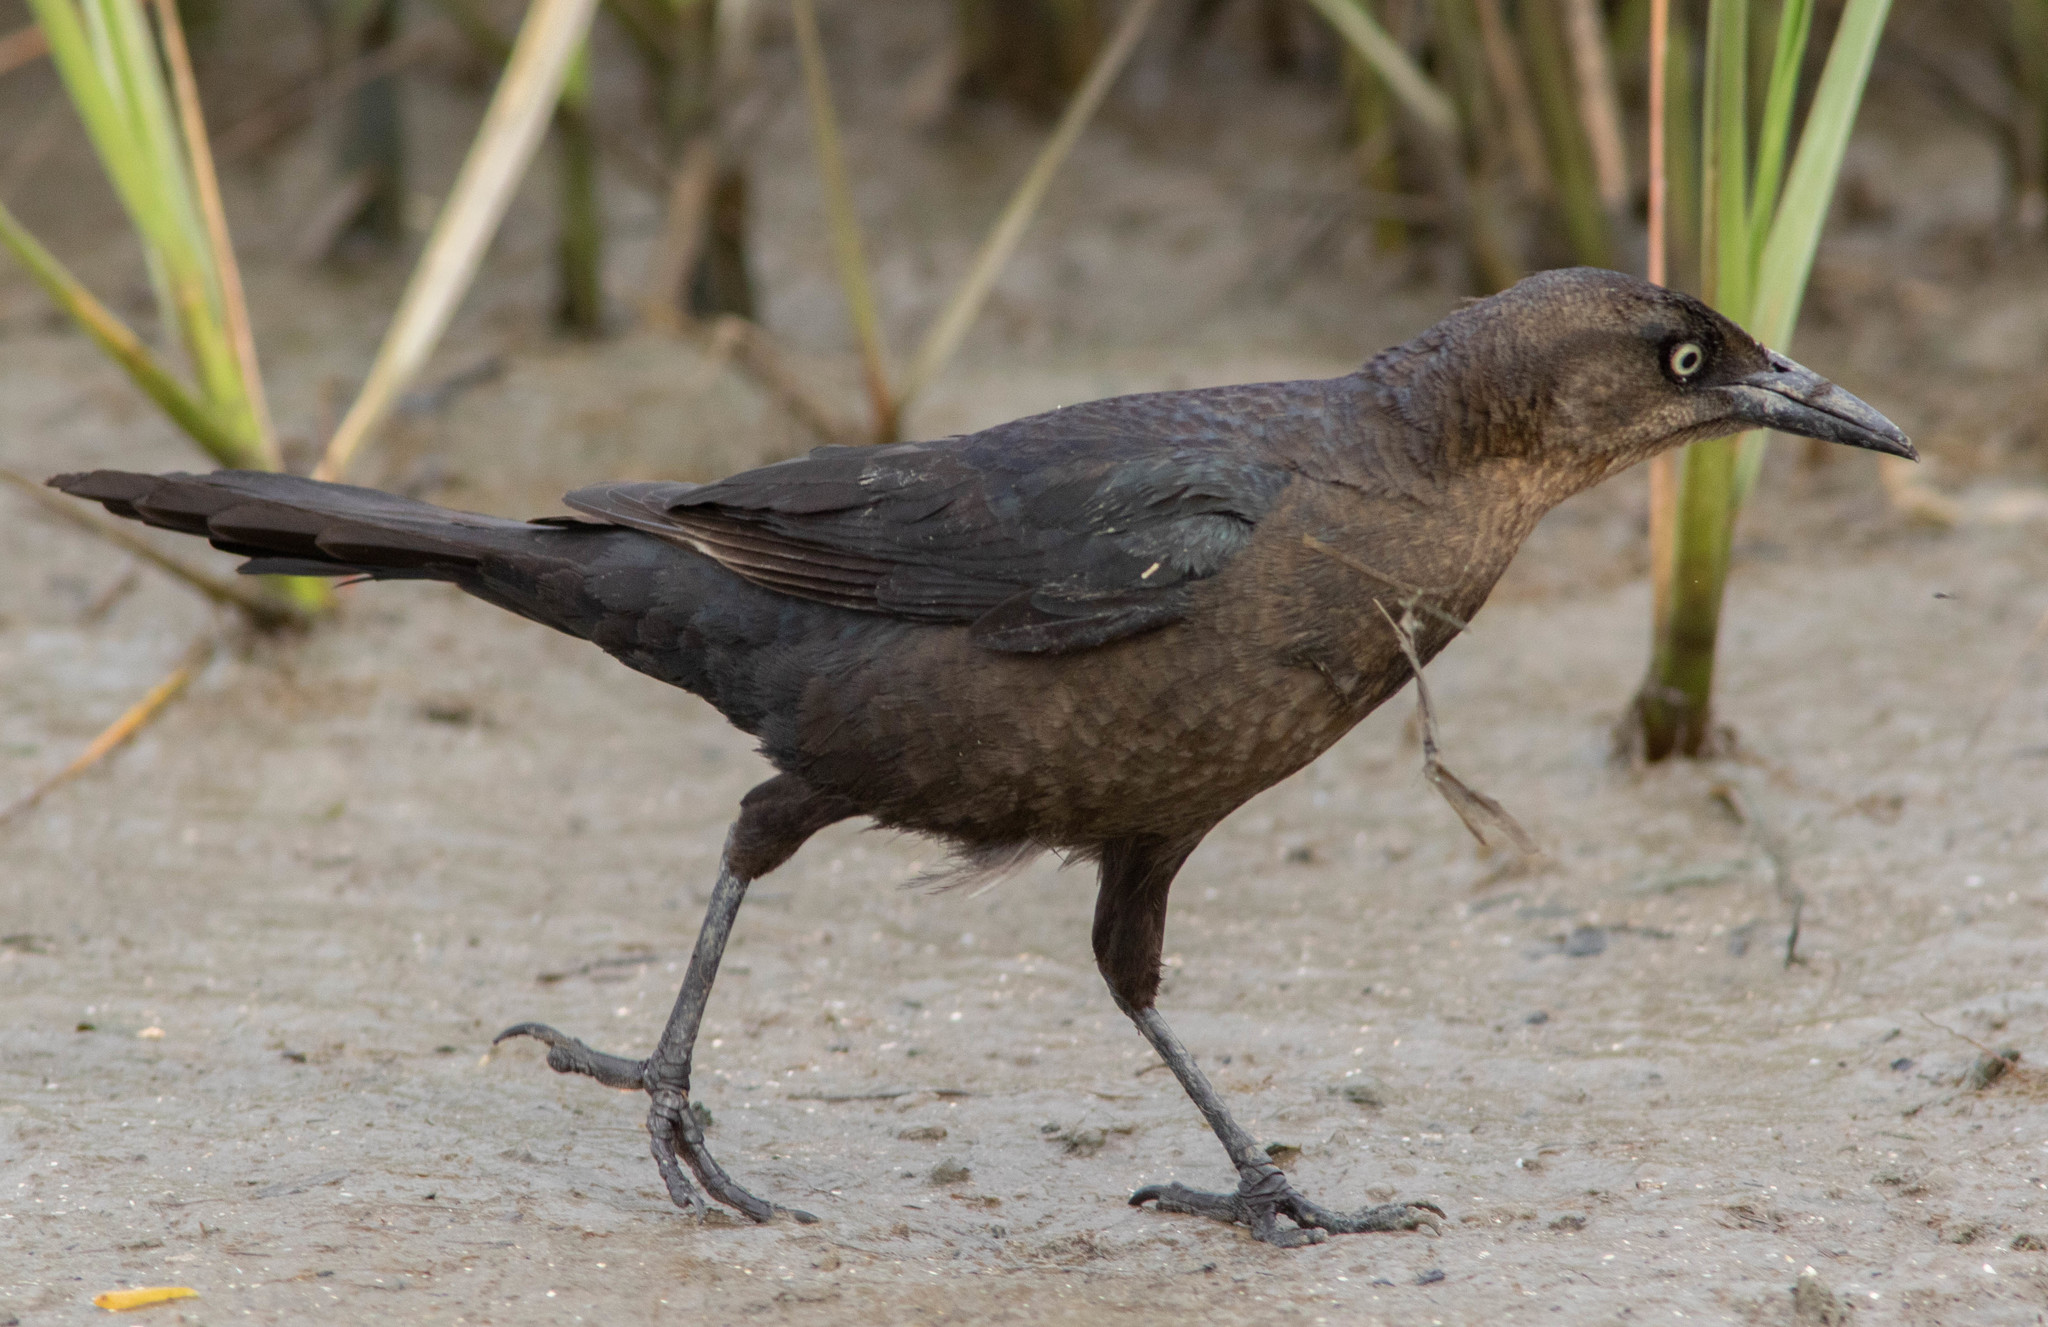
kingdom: Animalia
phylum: Chordata
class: Aves
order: Passeriformes
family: Icteridae
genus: Quiscalus
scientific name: Quiscalus mexicanus
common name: Great-tailed grackle
